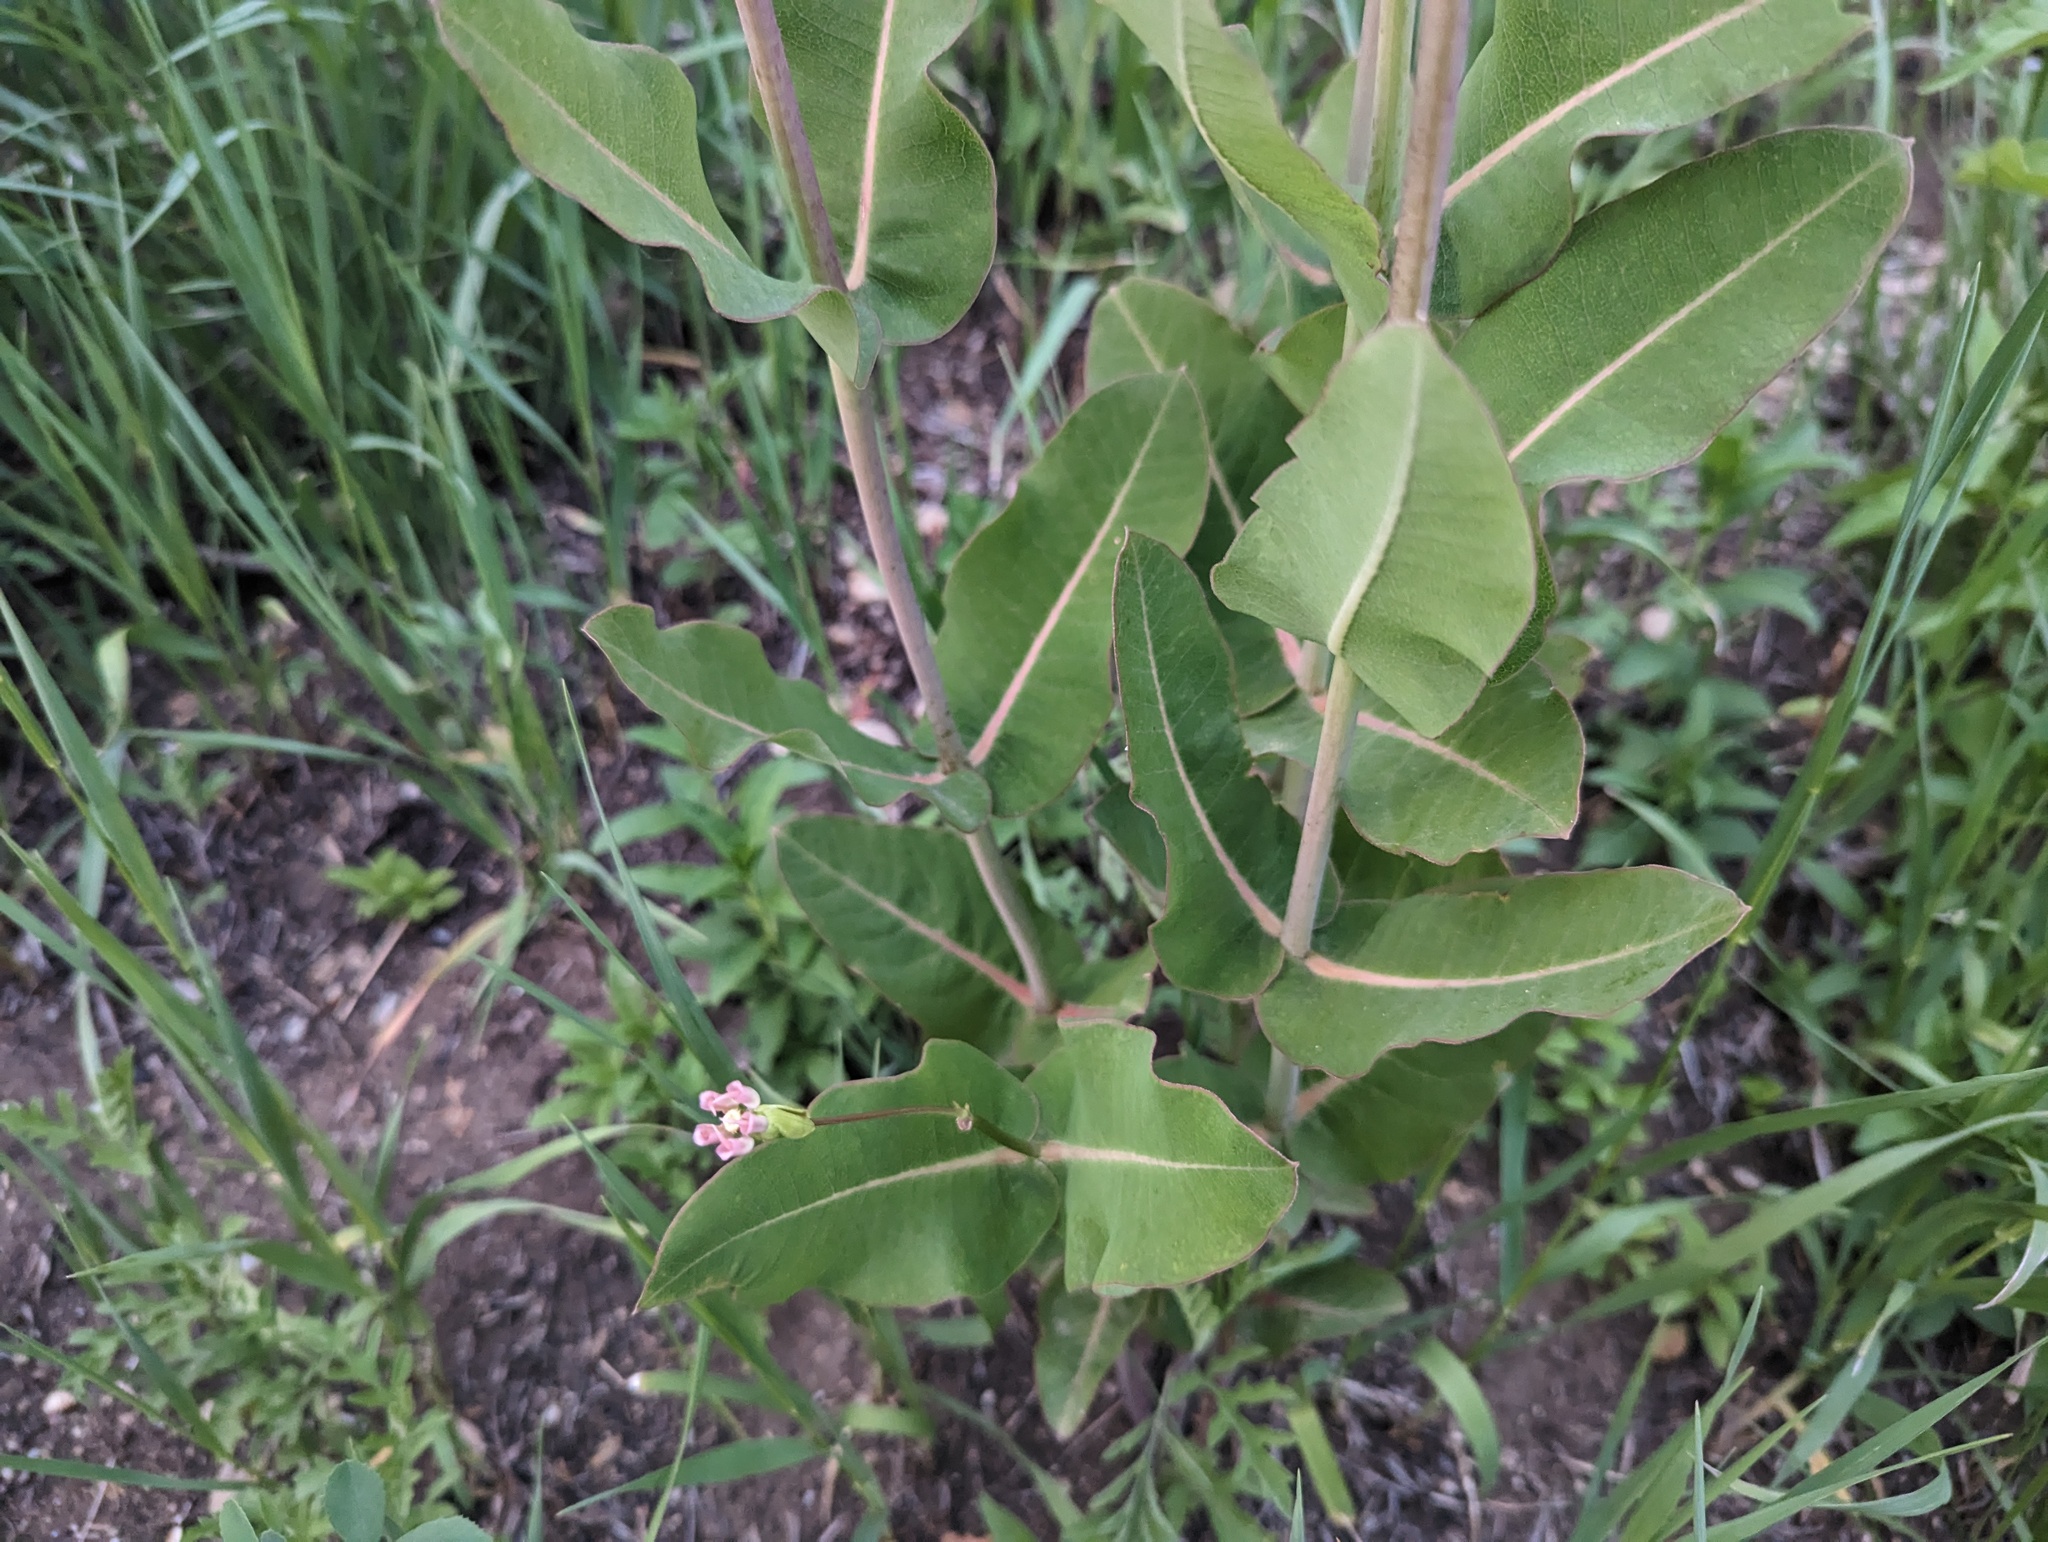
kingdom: Plantae
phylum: Tracheophyta
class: Magnoliopsida
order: Gentianales
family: Apocynaceae
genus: Asclepias
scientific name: Asclepias amplexicaulis
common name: Blunt-leaf milkweed
